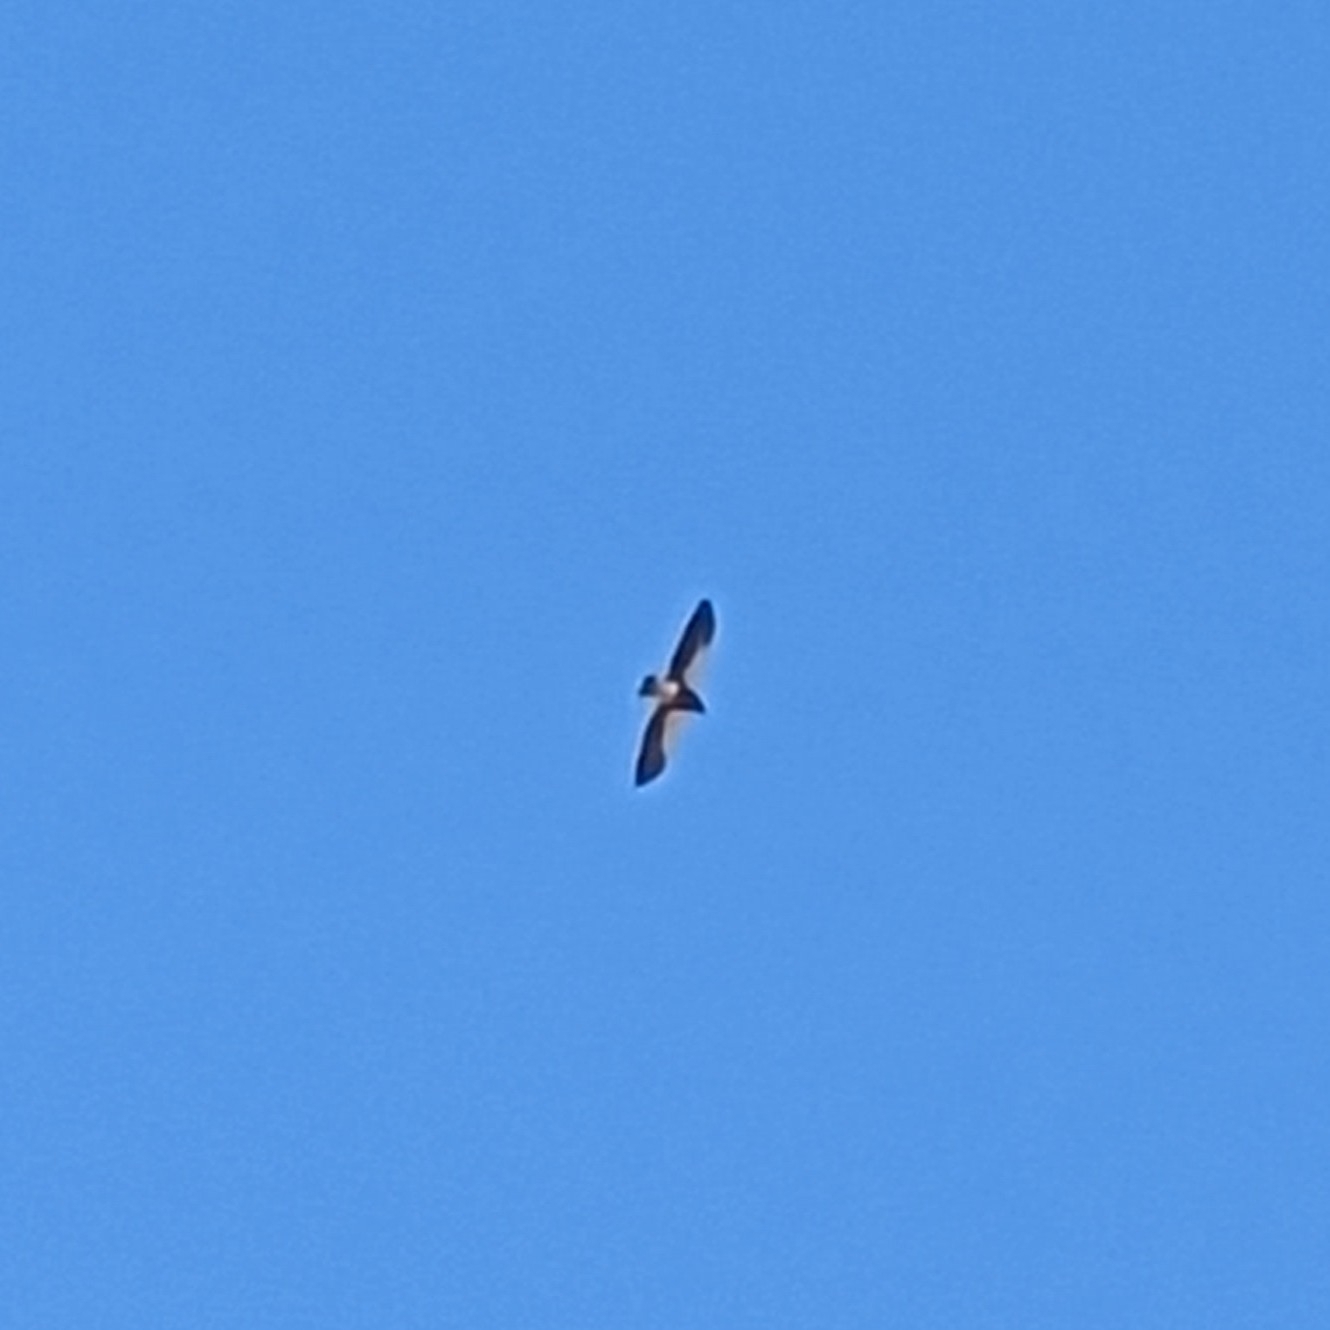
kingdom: Animalia
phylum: Chordata
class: Aves
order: Accipitriformes
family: Accipitridae
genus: Buteo
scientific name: Buteo swainsoni
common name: Swainson's hawk
